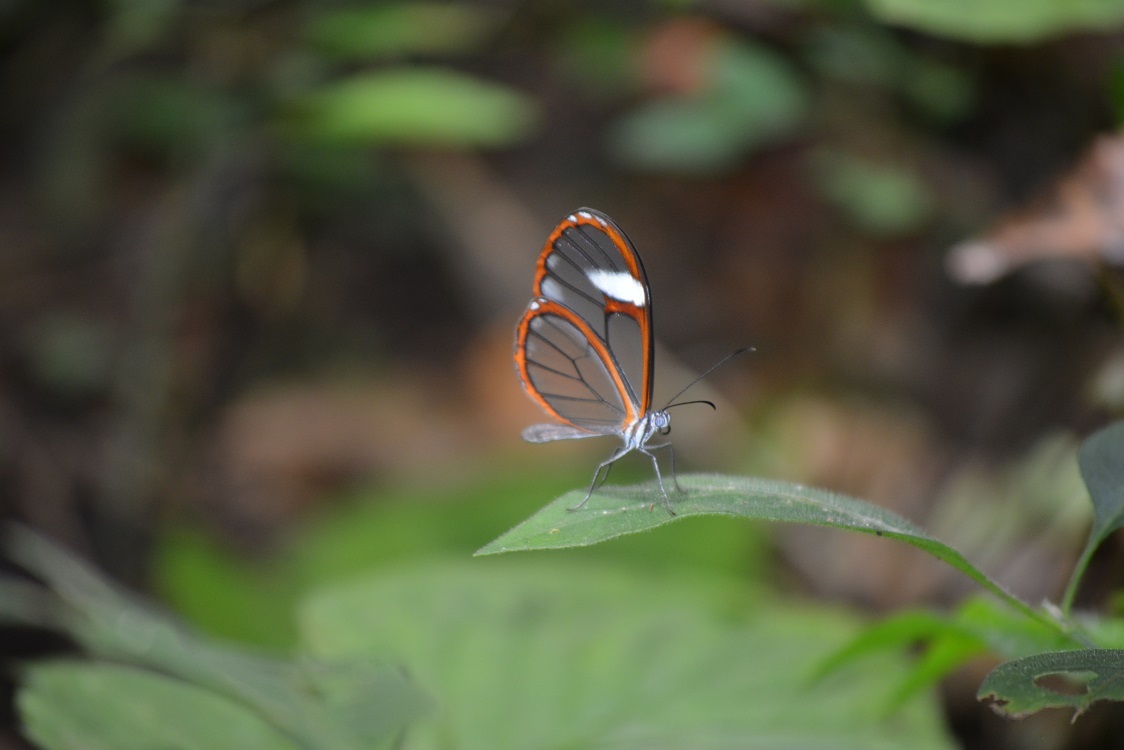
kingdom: Animalia
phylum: Arthropoda
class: Insecta
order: Lepidoptera
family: Nymphalidae
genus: Episcada
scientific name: Episcada salvinia
